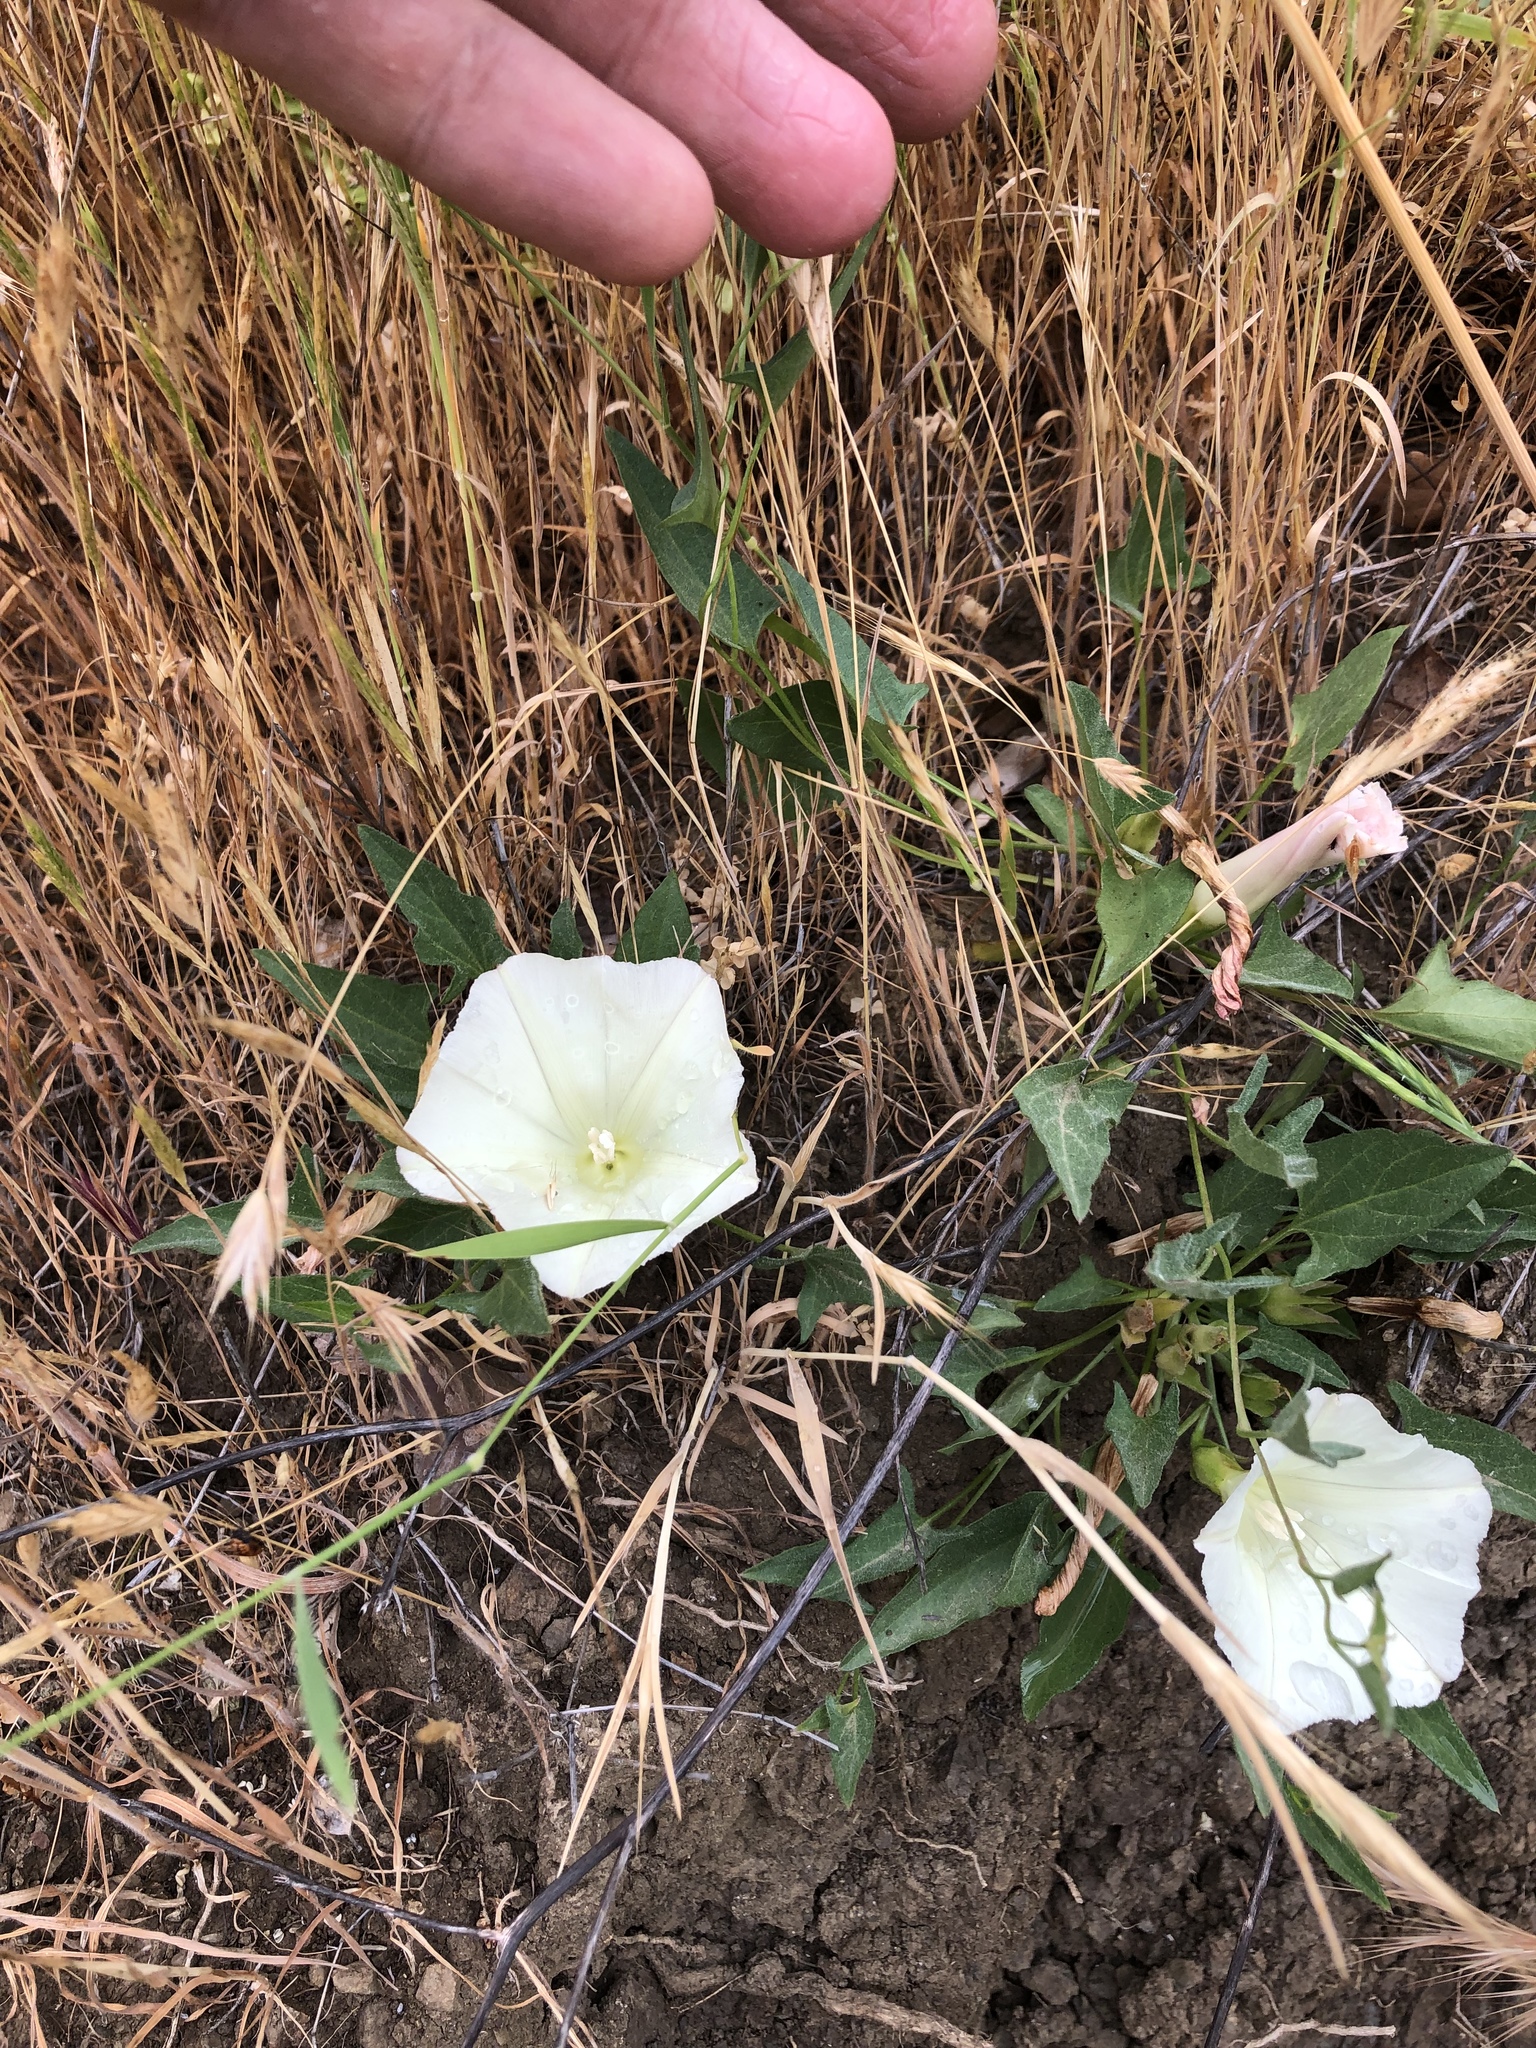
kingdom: Plantae
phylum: Tracheophyta
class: Magnoliopsida
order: Solanales
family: Convolvulaceae
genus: Calystegia
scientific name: Calystegia subacaulis
